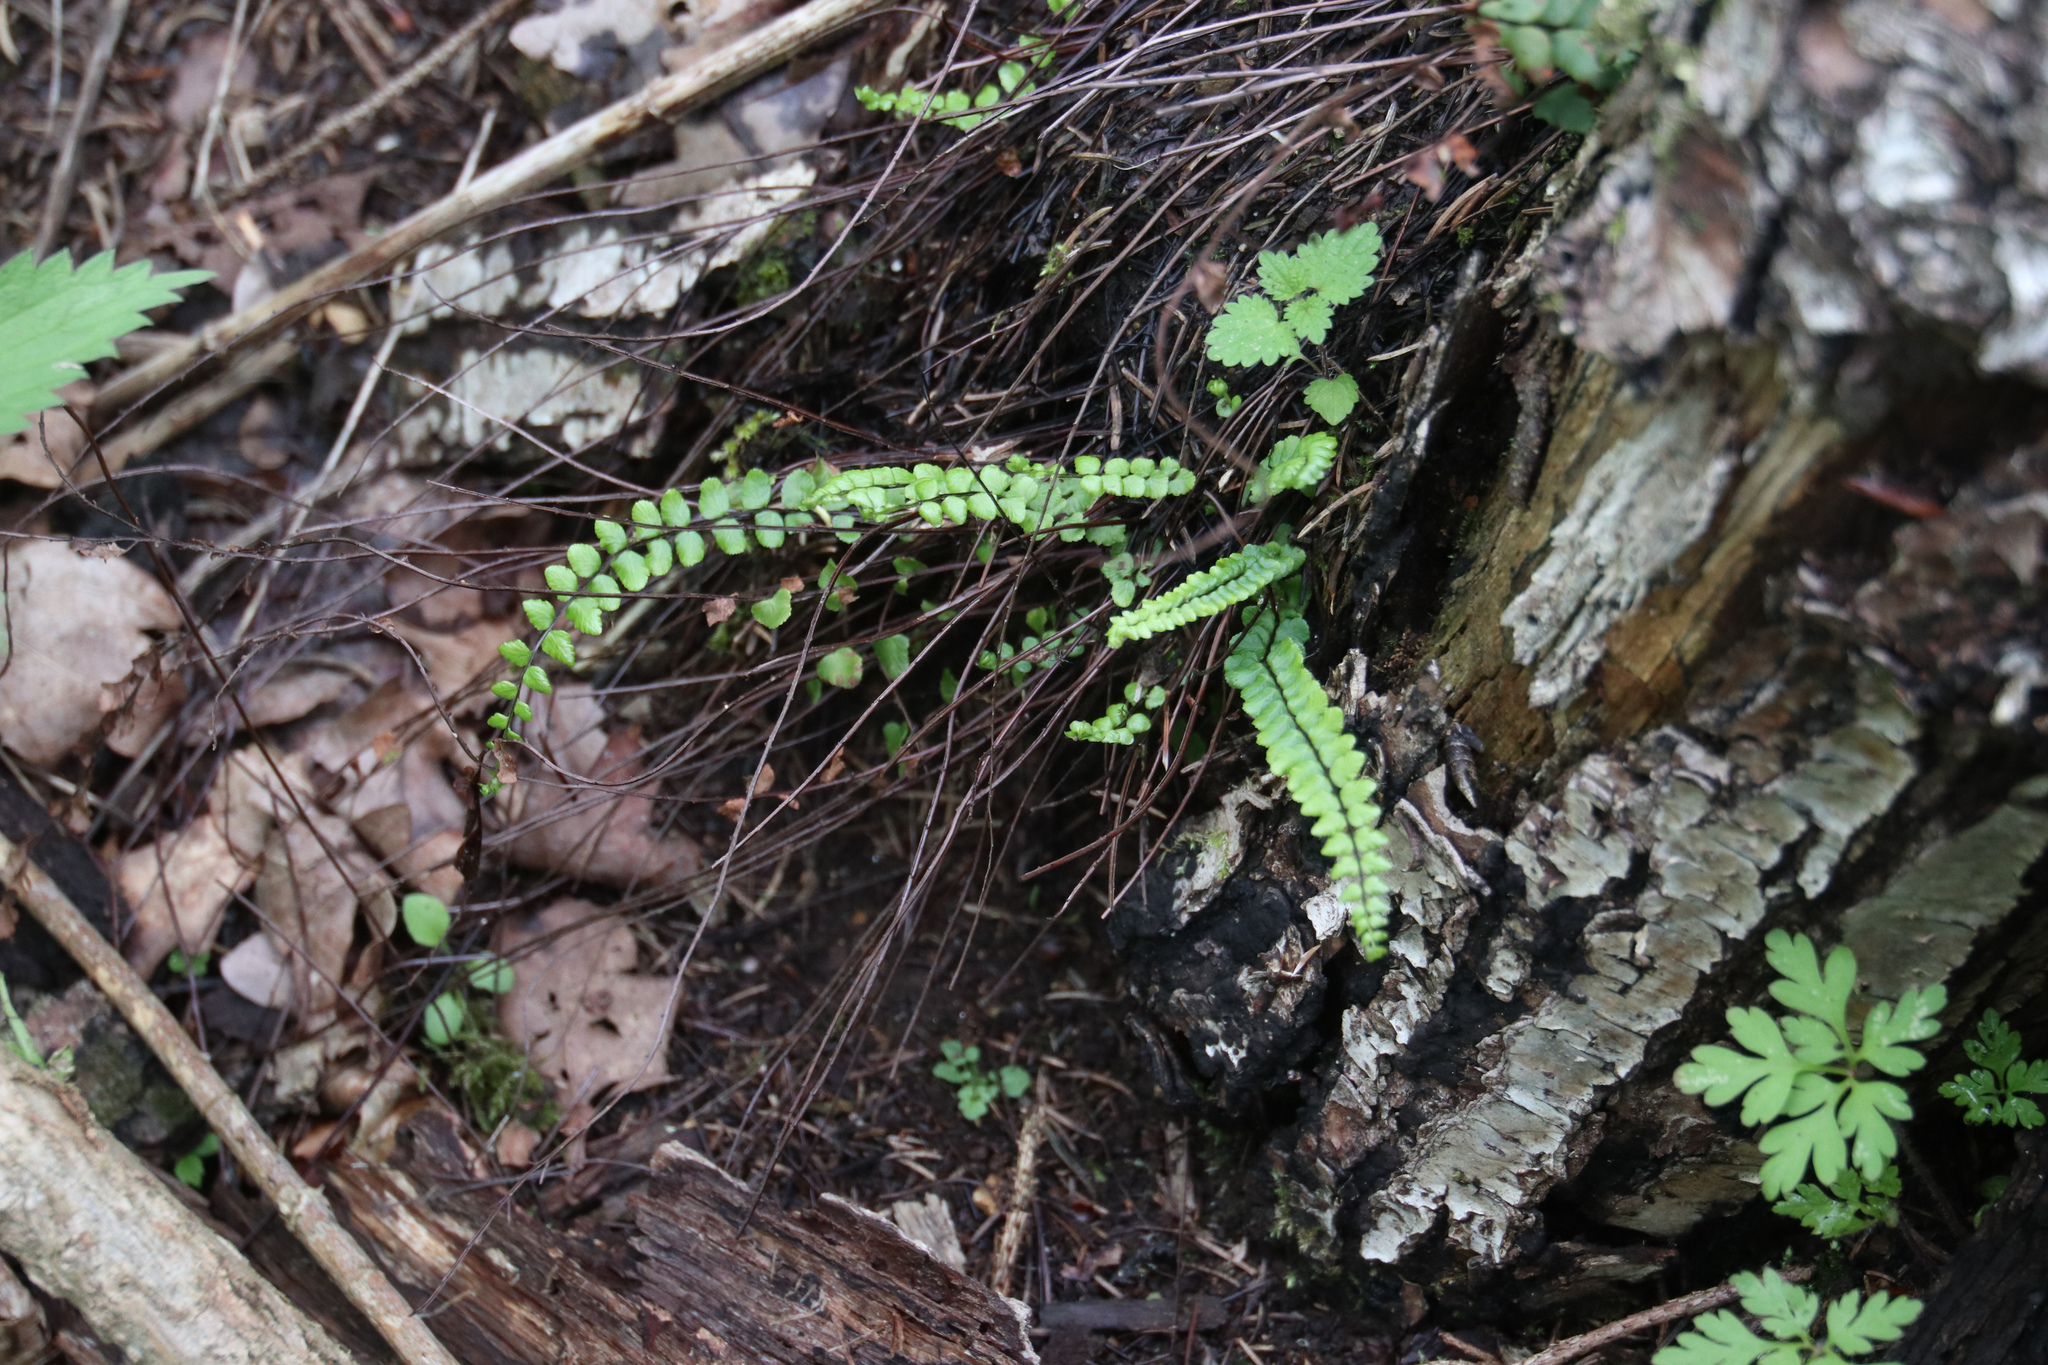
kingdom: Plantae
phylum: Tracheophyta
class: Polypodiopsida
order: Polypodiales
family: Aspleniaceae
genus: Asplenium
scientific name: Asplenium trichomanes
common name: Maidenhair spleenwort
